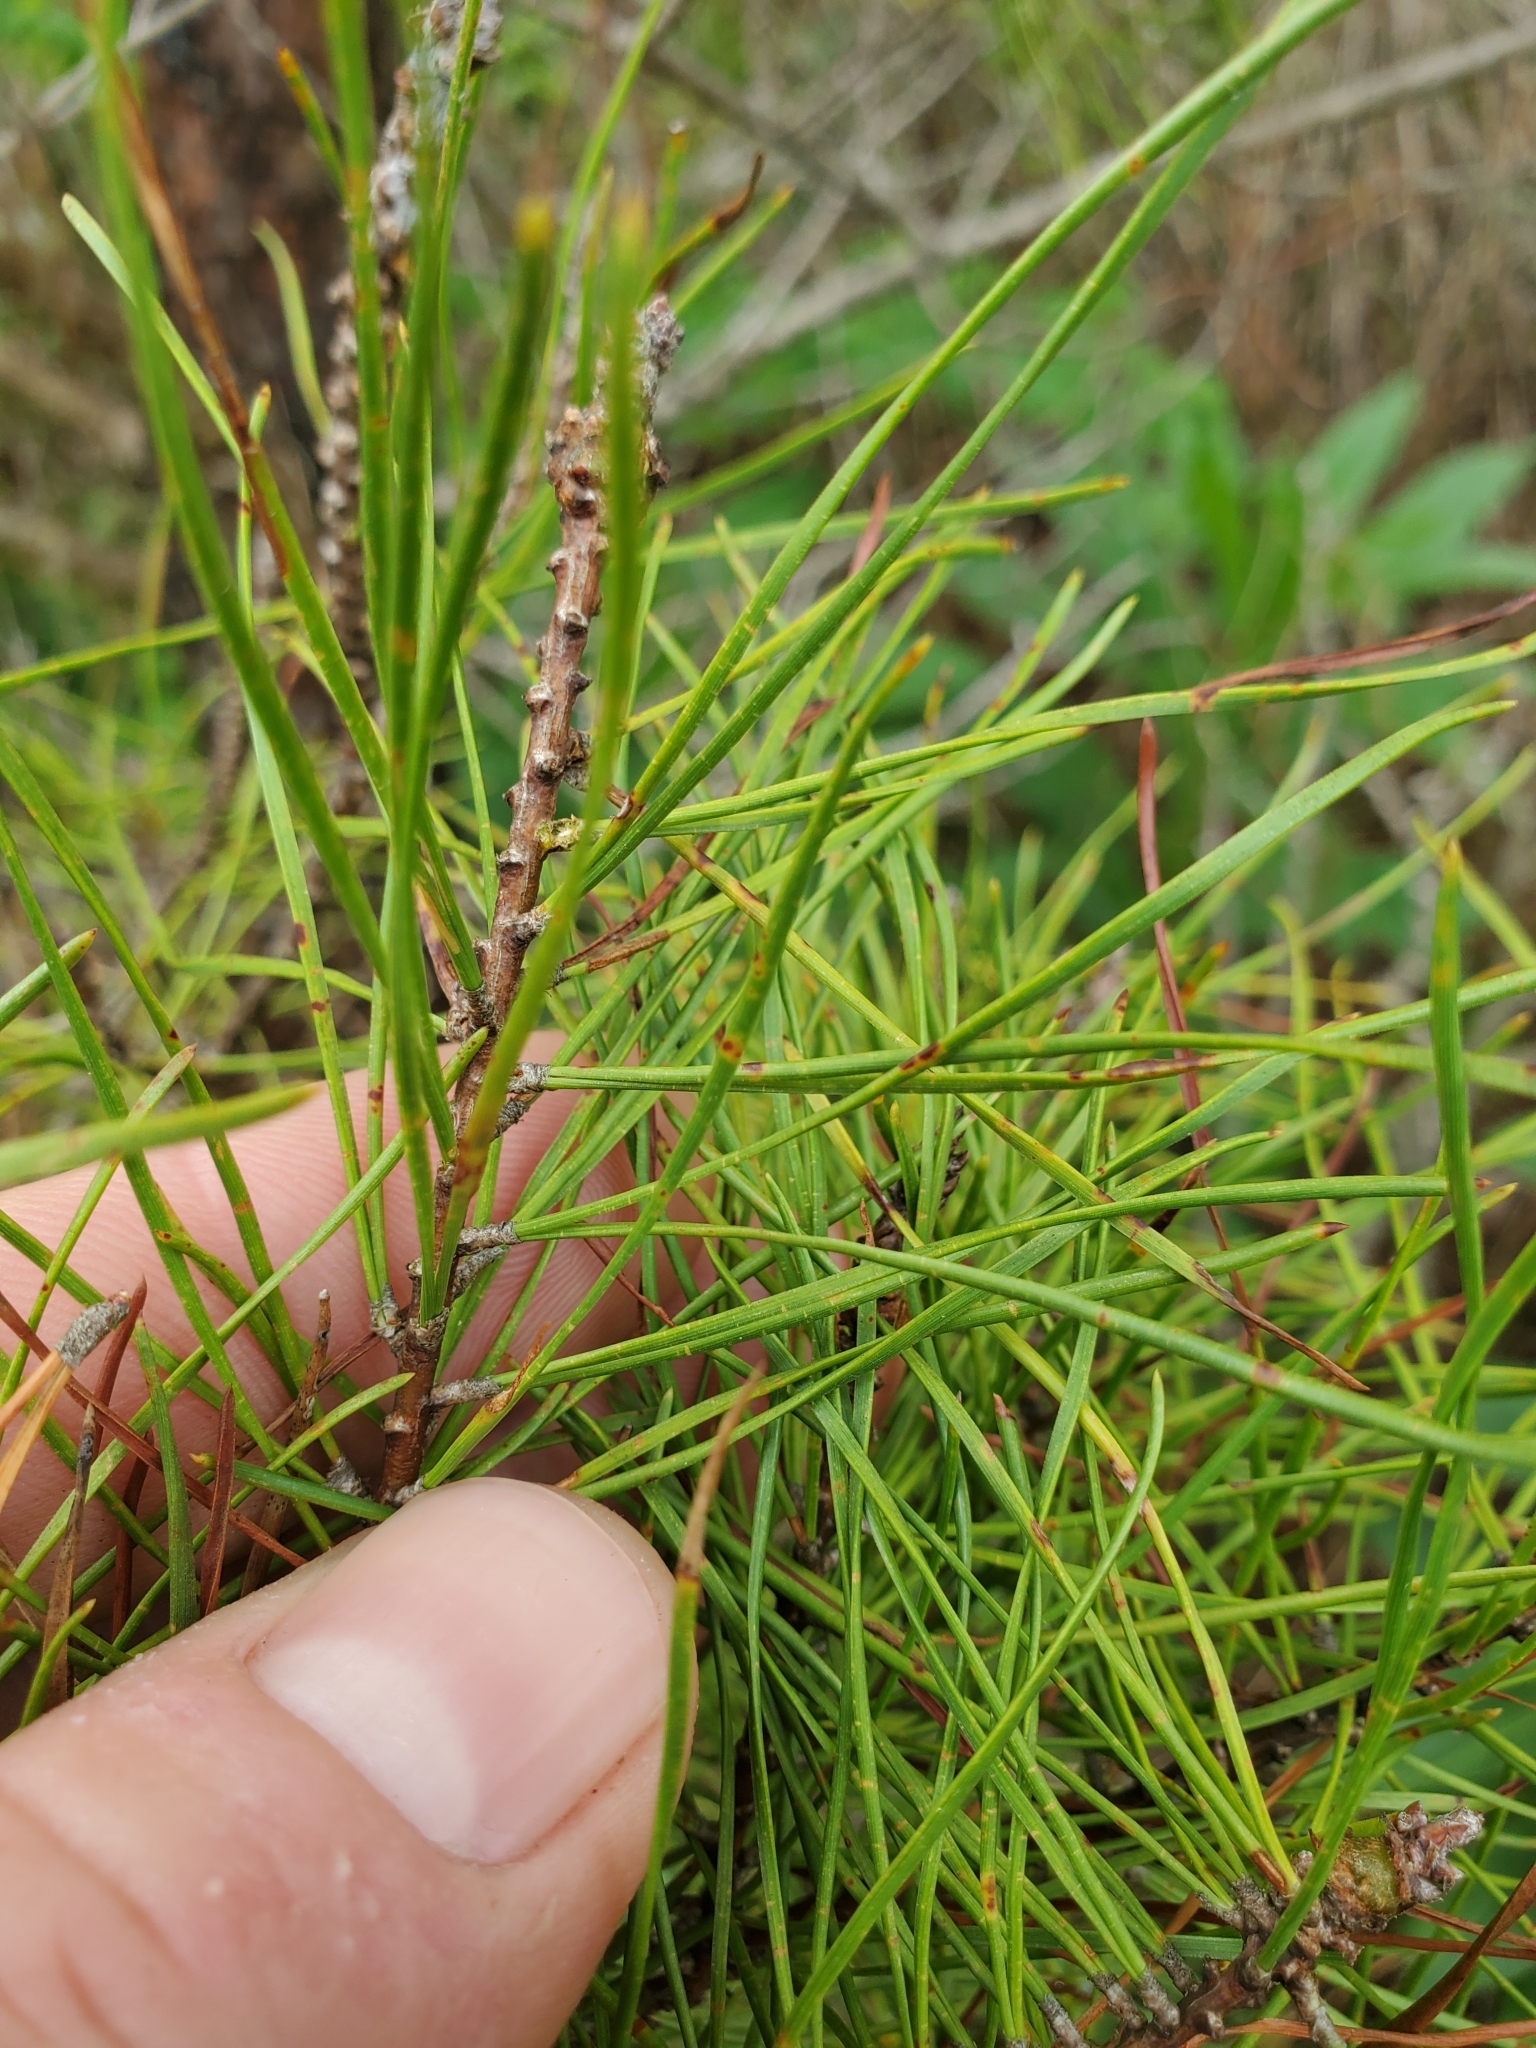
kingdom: Plantae
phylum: Tracheophyta
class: Pinopsida
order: Pinales
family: Pinaceae
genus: Pinus
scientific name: Pinus virginiana
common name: Scrub pine
